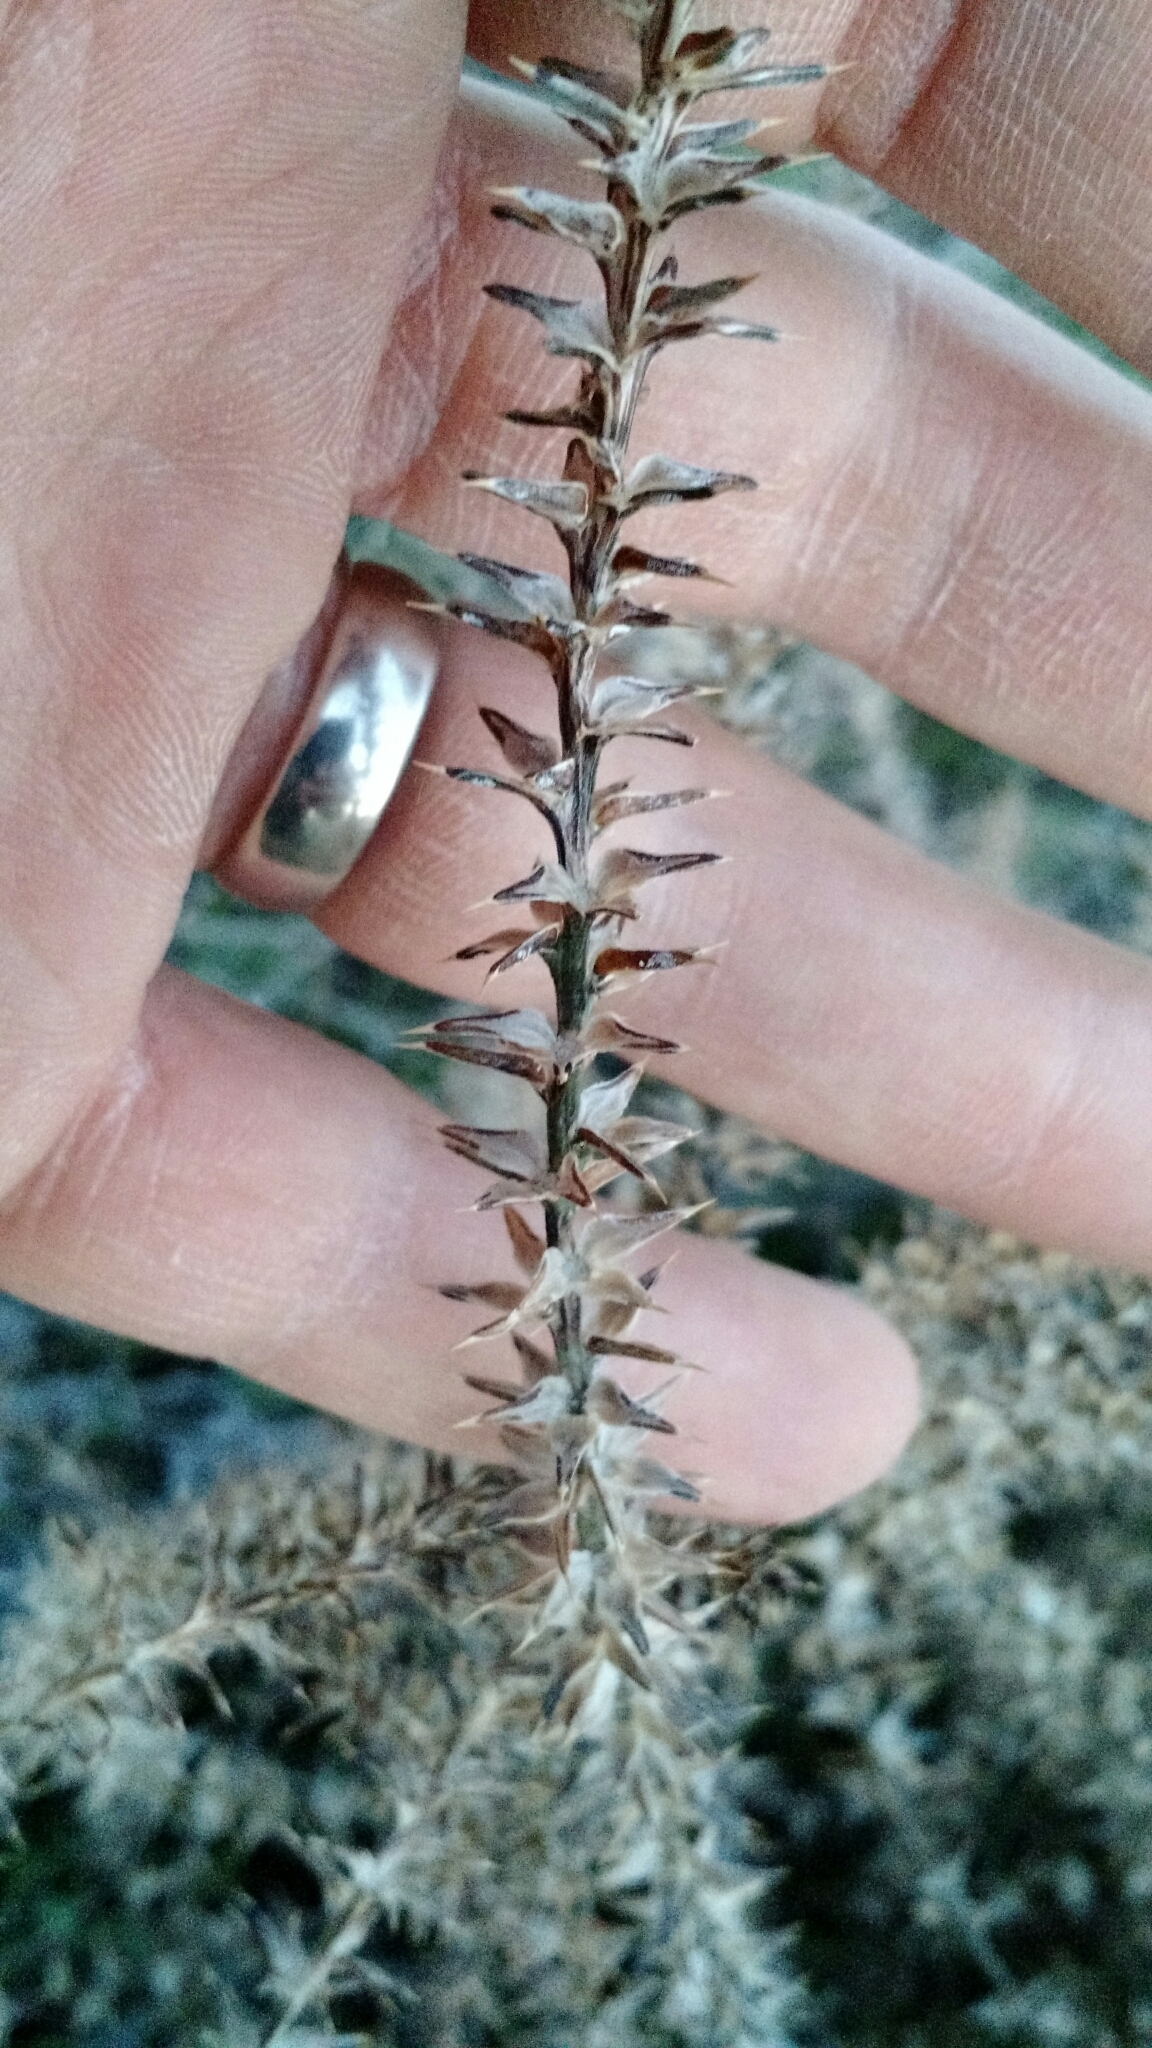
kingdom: Plantae
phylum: Tracheophyta
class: Magnoliopsida
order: Caryophyllales
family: Amaranthaceae
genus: Salsola
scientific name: Salsola tragus
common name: Prickly russian thistle
